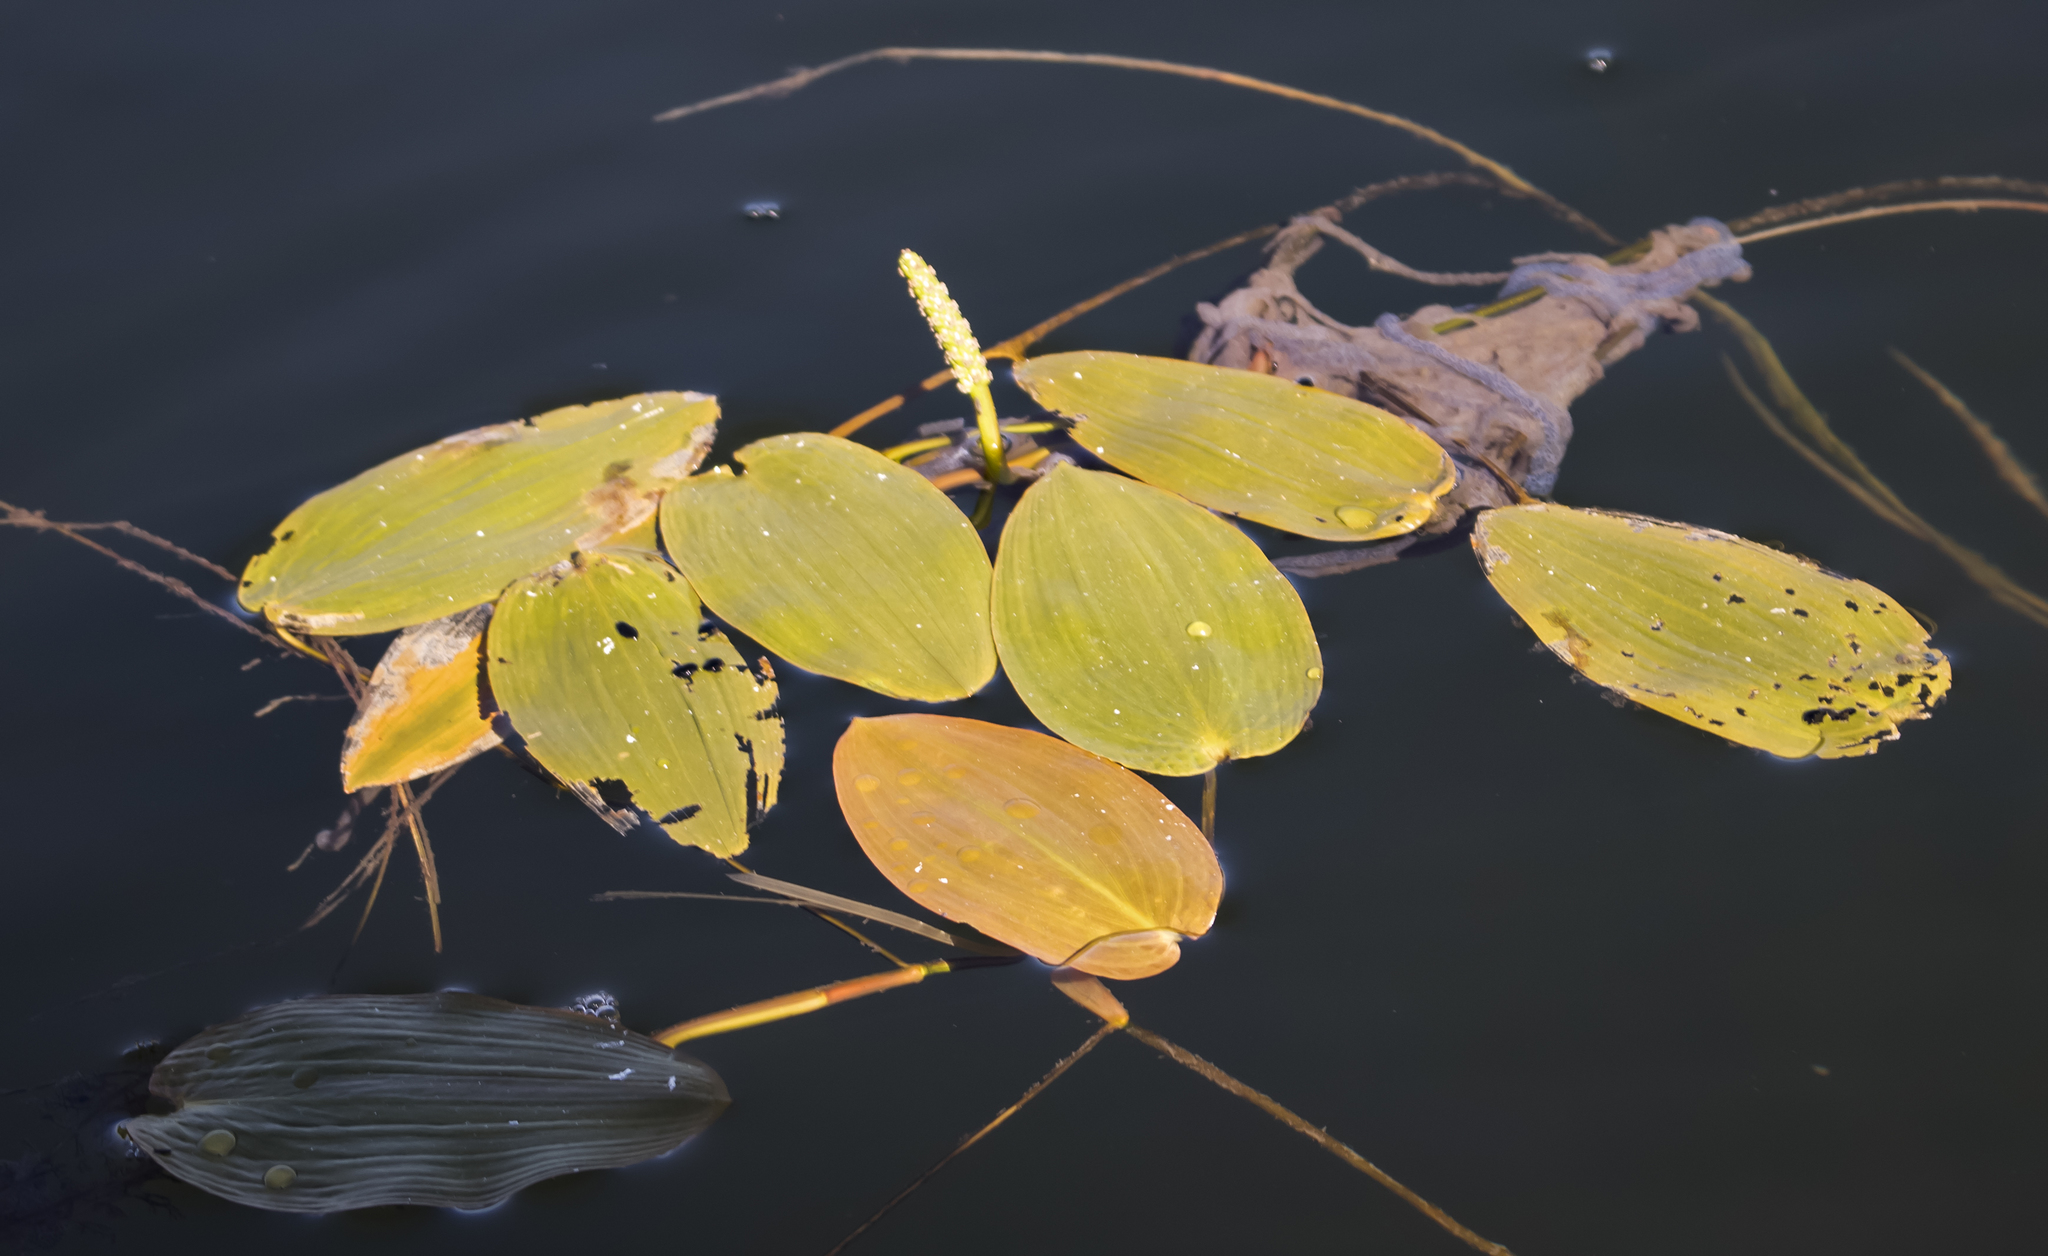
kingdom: Plantae
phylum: Tracheophyta
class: Liliopsida
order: Alismatales
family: Potamogetonaceae
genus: Potamogeton
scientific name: Potamogeton natans
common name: Broad-leaved pondweed
